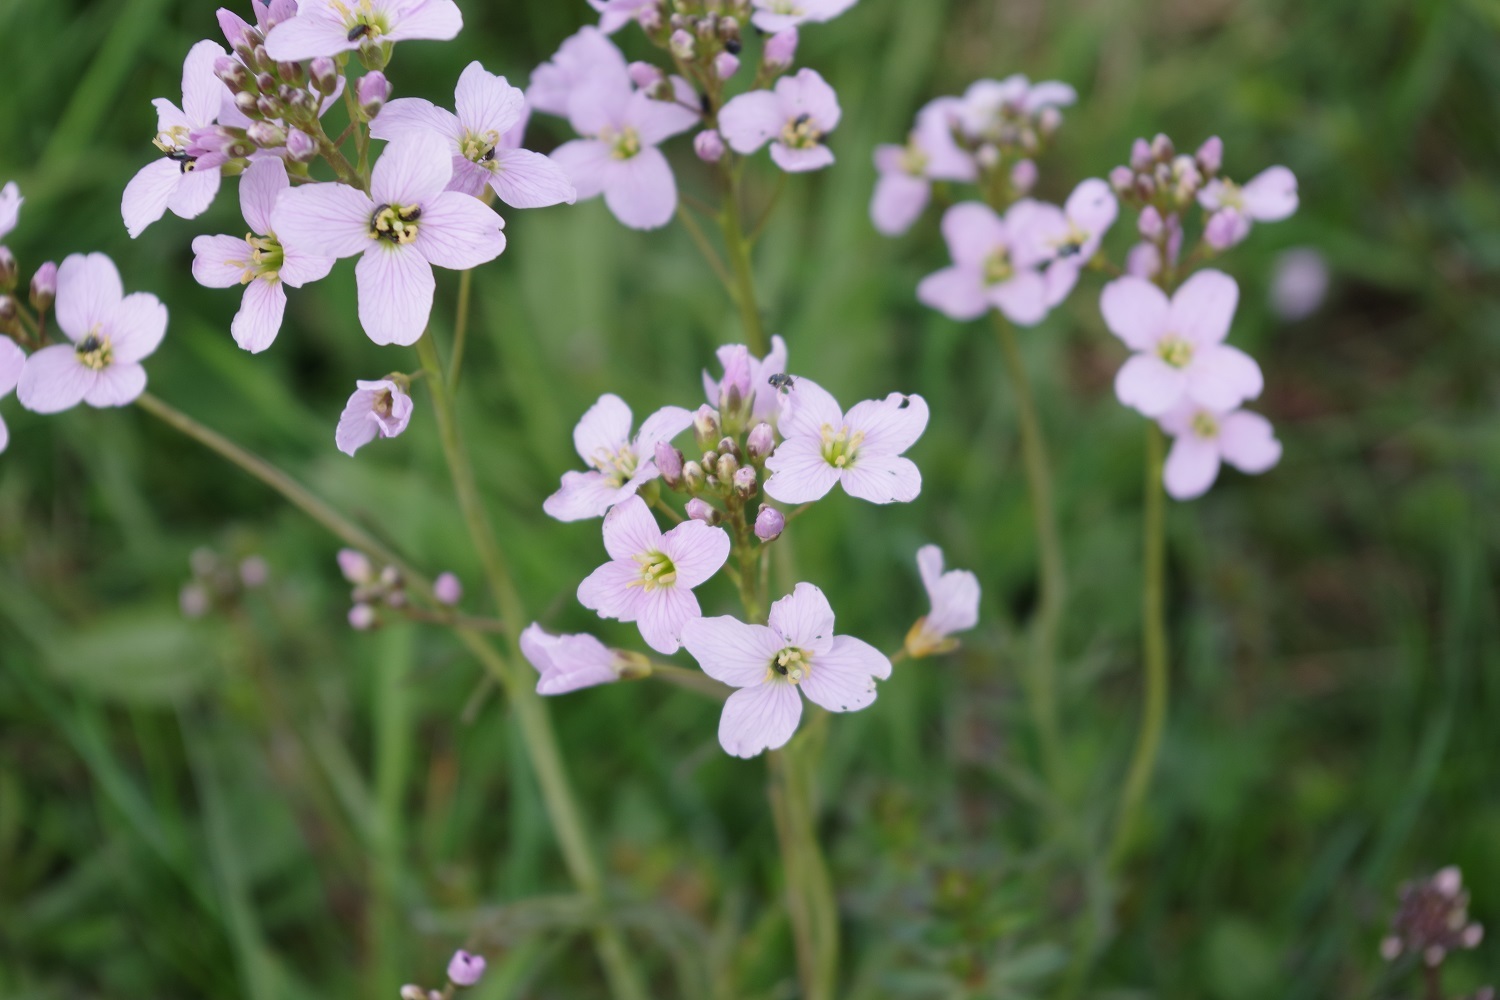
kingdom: Plantae
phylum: Tracheophyta
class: Magnoliopsida
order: Brassicales
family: Brassicaceae
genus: Cardamine
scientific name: Cardamine pratensis
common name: Cuckoo flower
